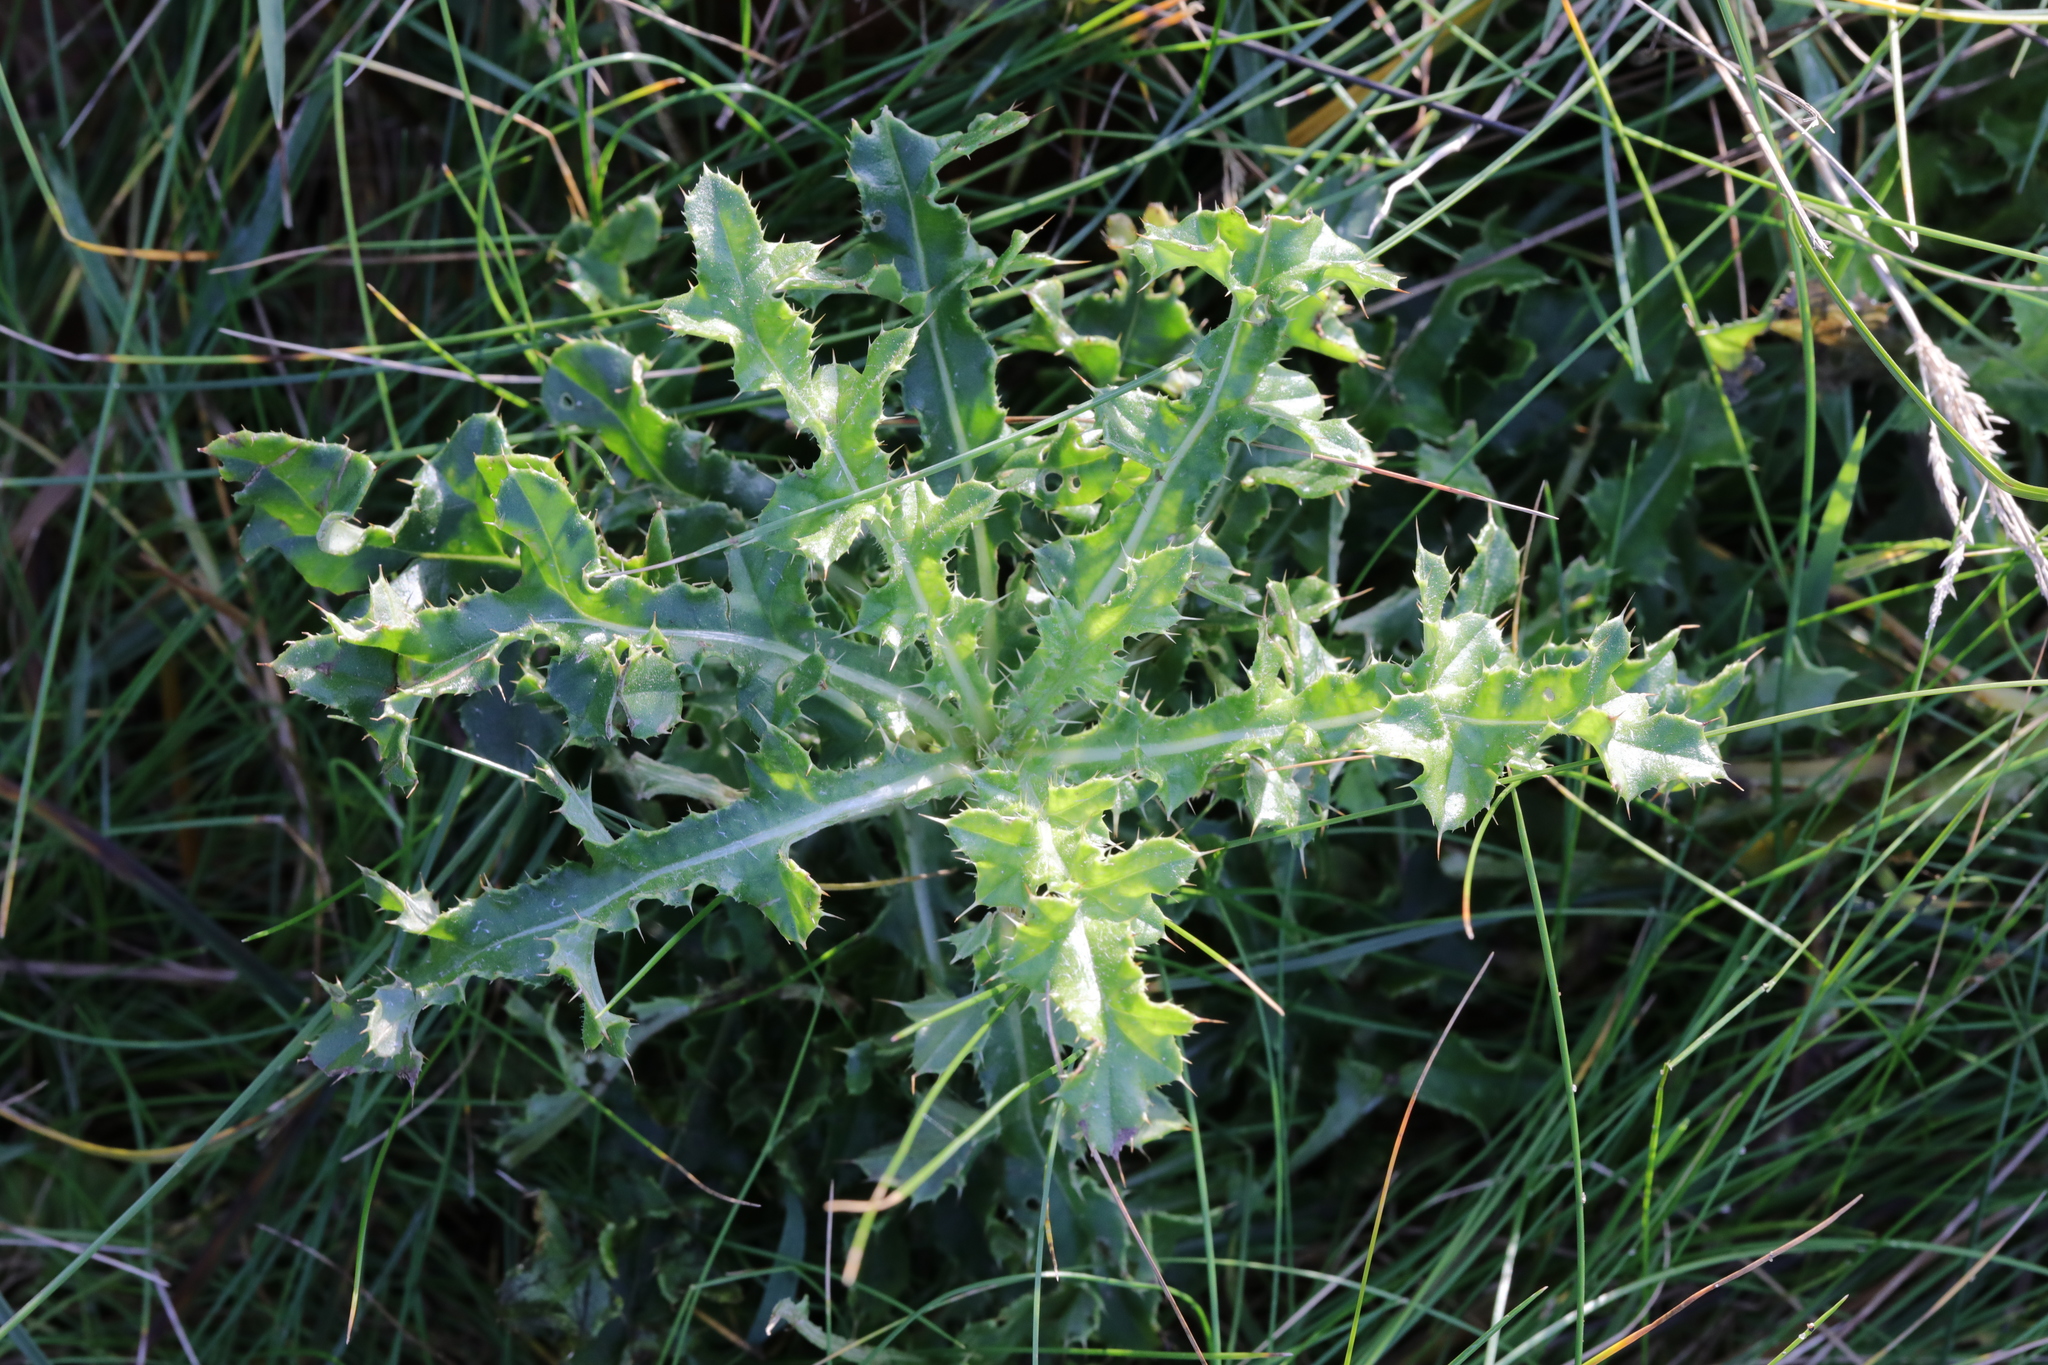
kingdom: Plantae
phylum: Tracheophyta
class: Magnoliopsida
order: Asterales
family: Asteraceae
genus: Cirsium
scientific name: Cirsium arvense
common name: Creeping thistle
